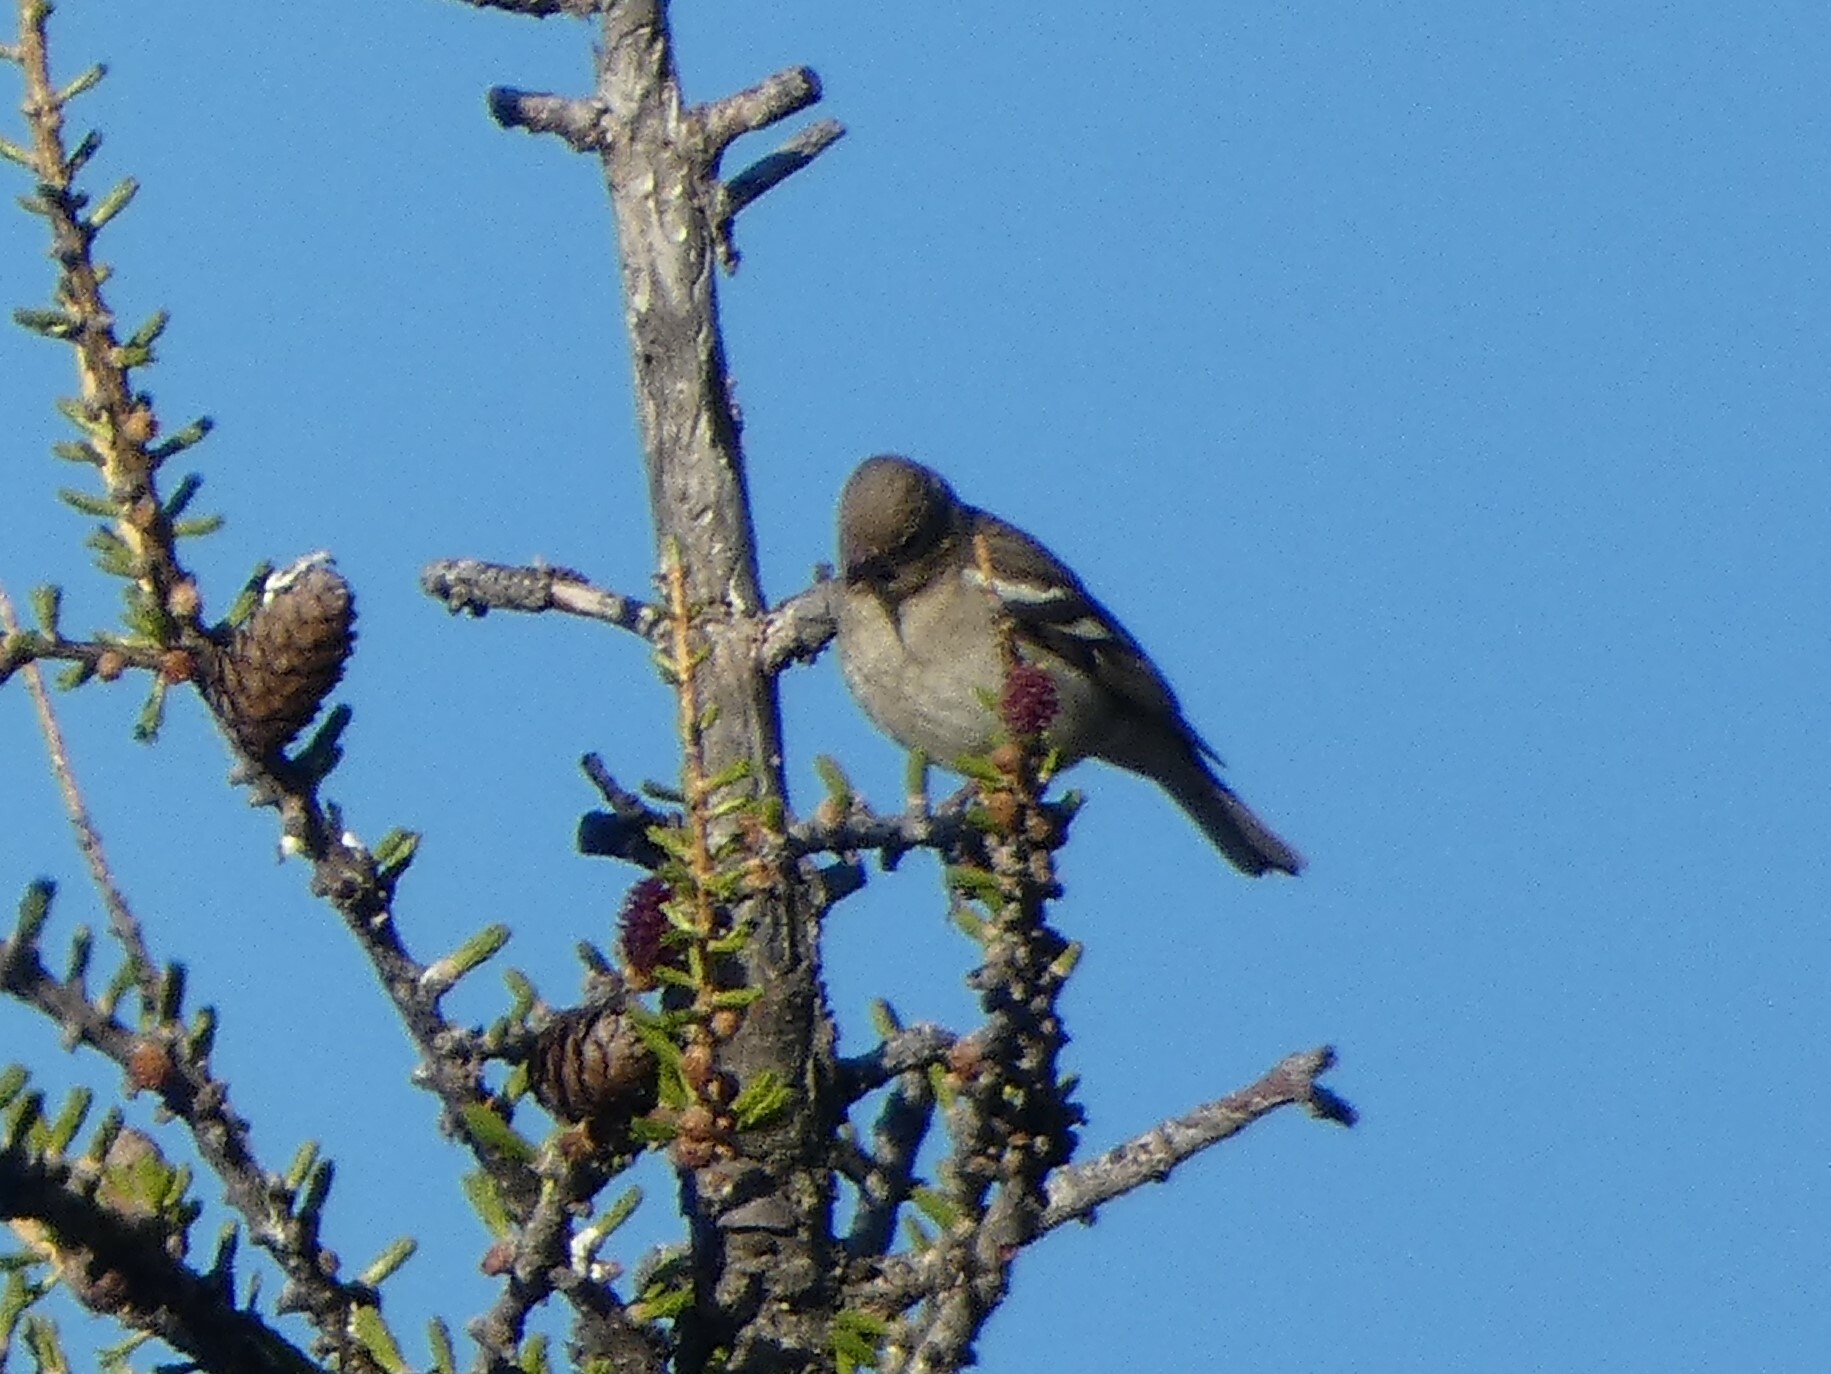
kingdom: Animalia
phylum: Chordata
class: Aves
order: Passeriformes
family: Fringillidae
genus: Fringilla
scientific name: Fringilla coelebs
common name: Common chaffinch
